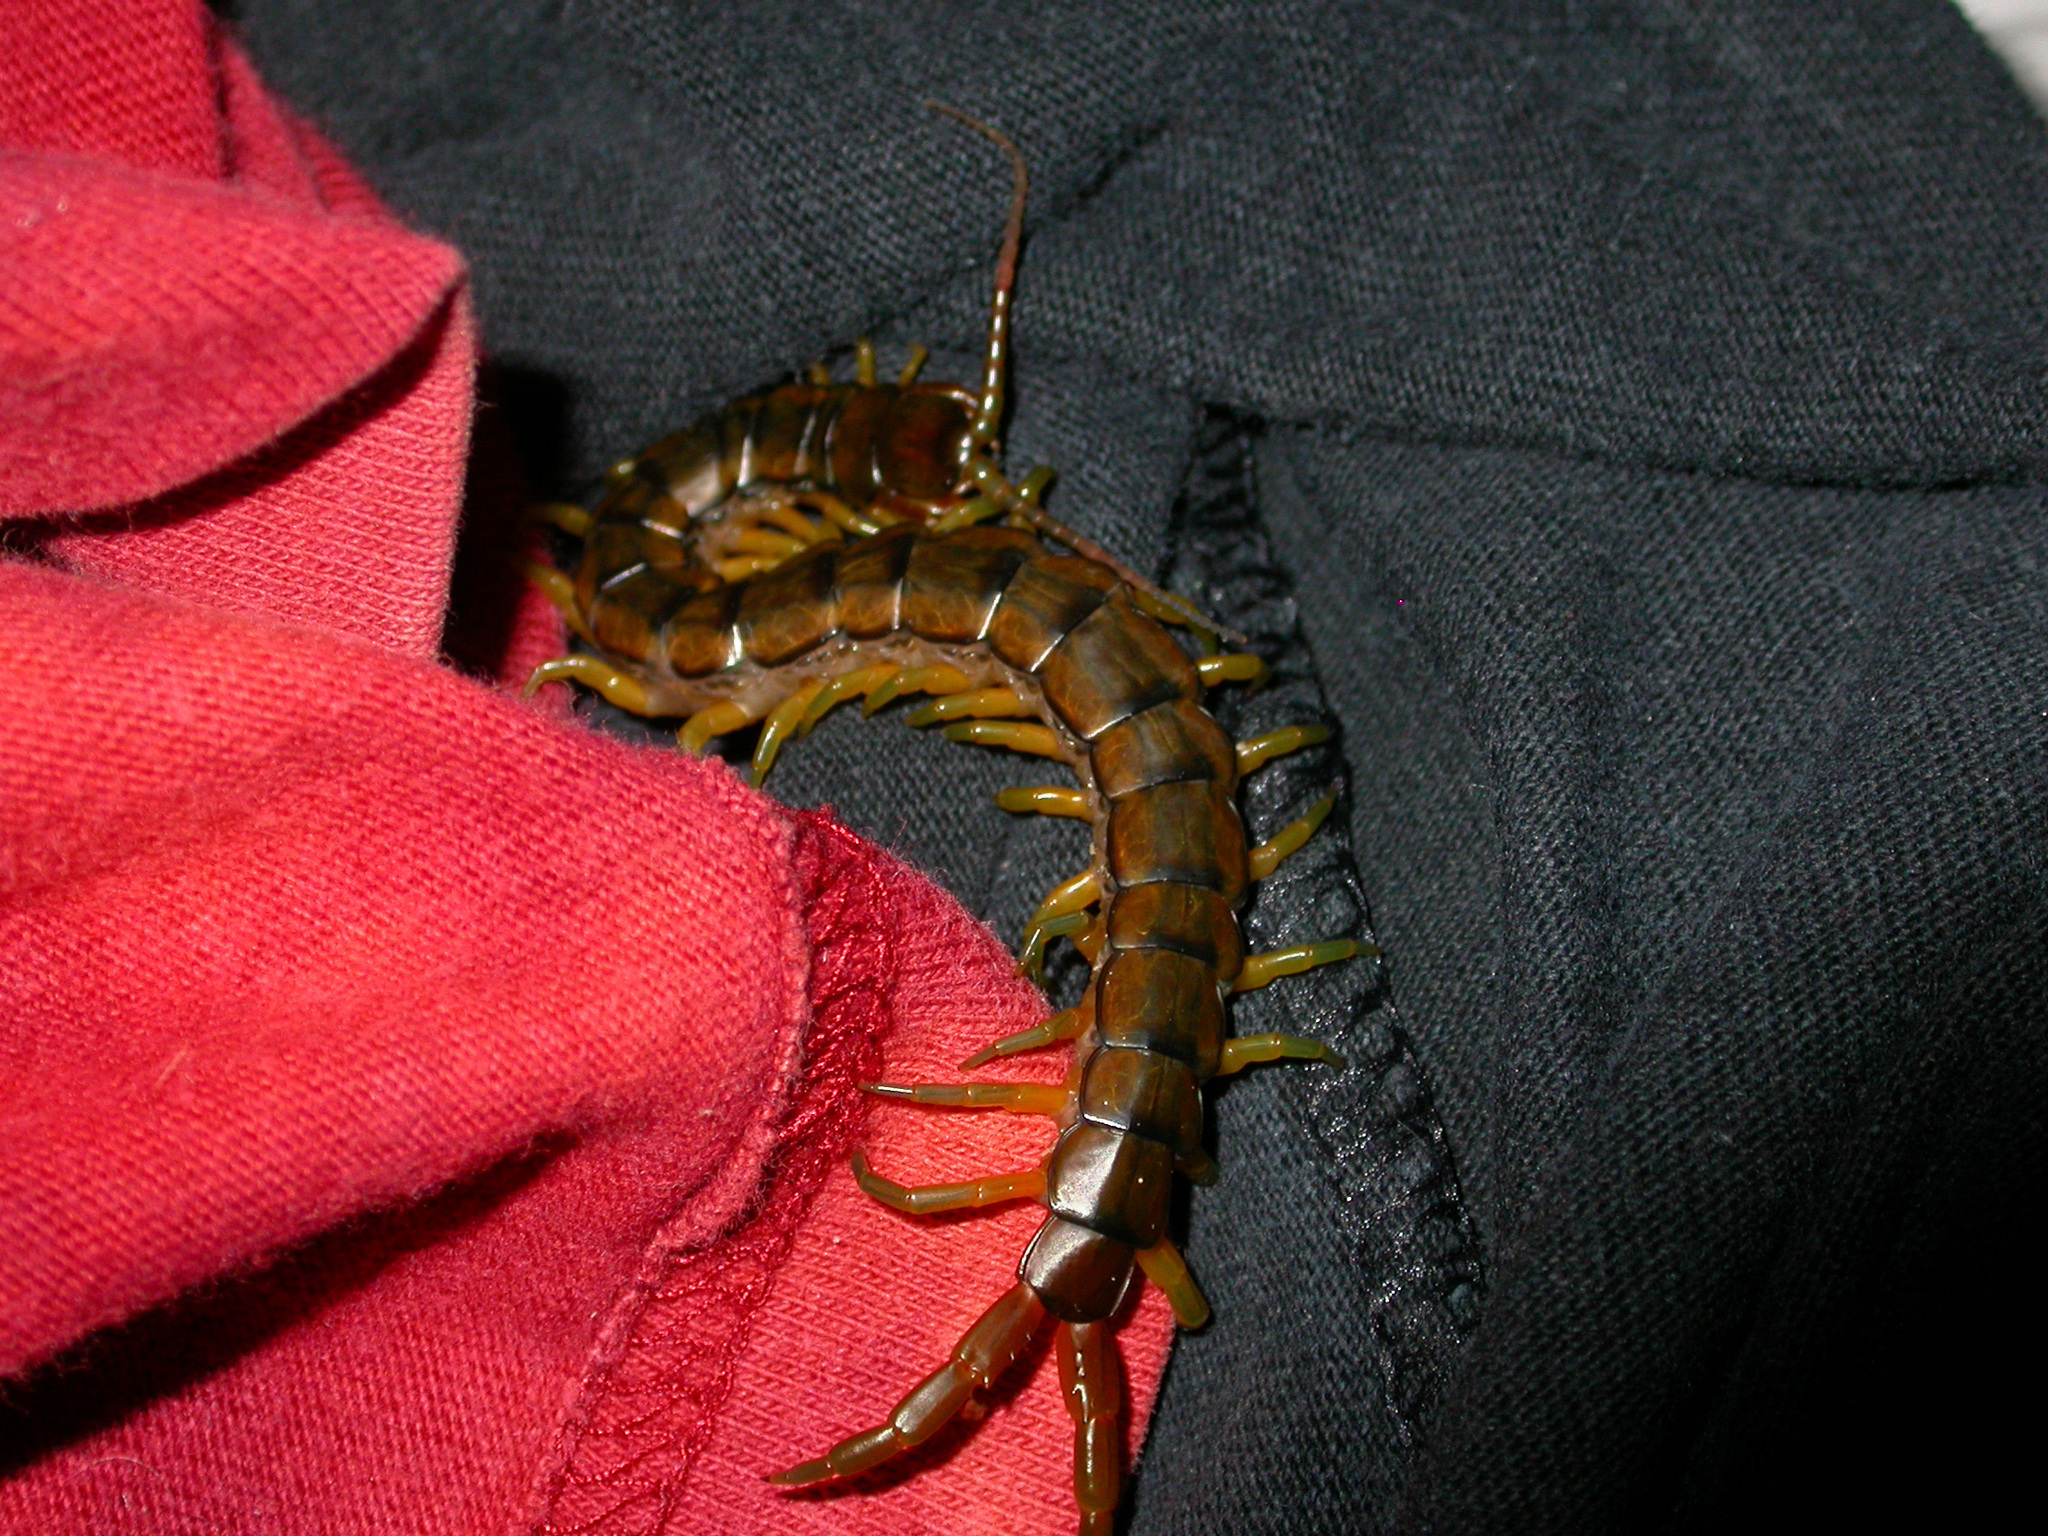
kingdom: Animalia
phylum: Arthropoda
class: Chilopoda
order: Scolopendromorpha
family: Scolopendridae
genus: Scolopendra
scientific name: Scolopendra cingulata
